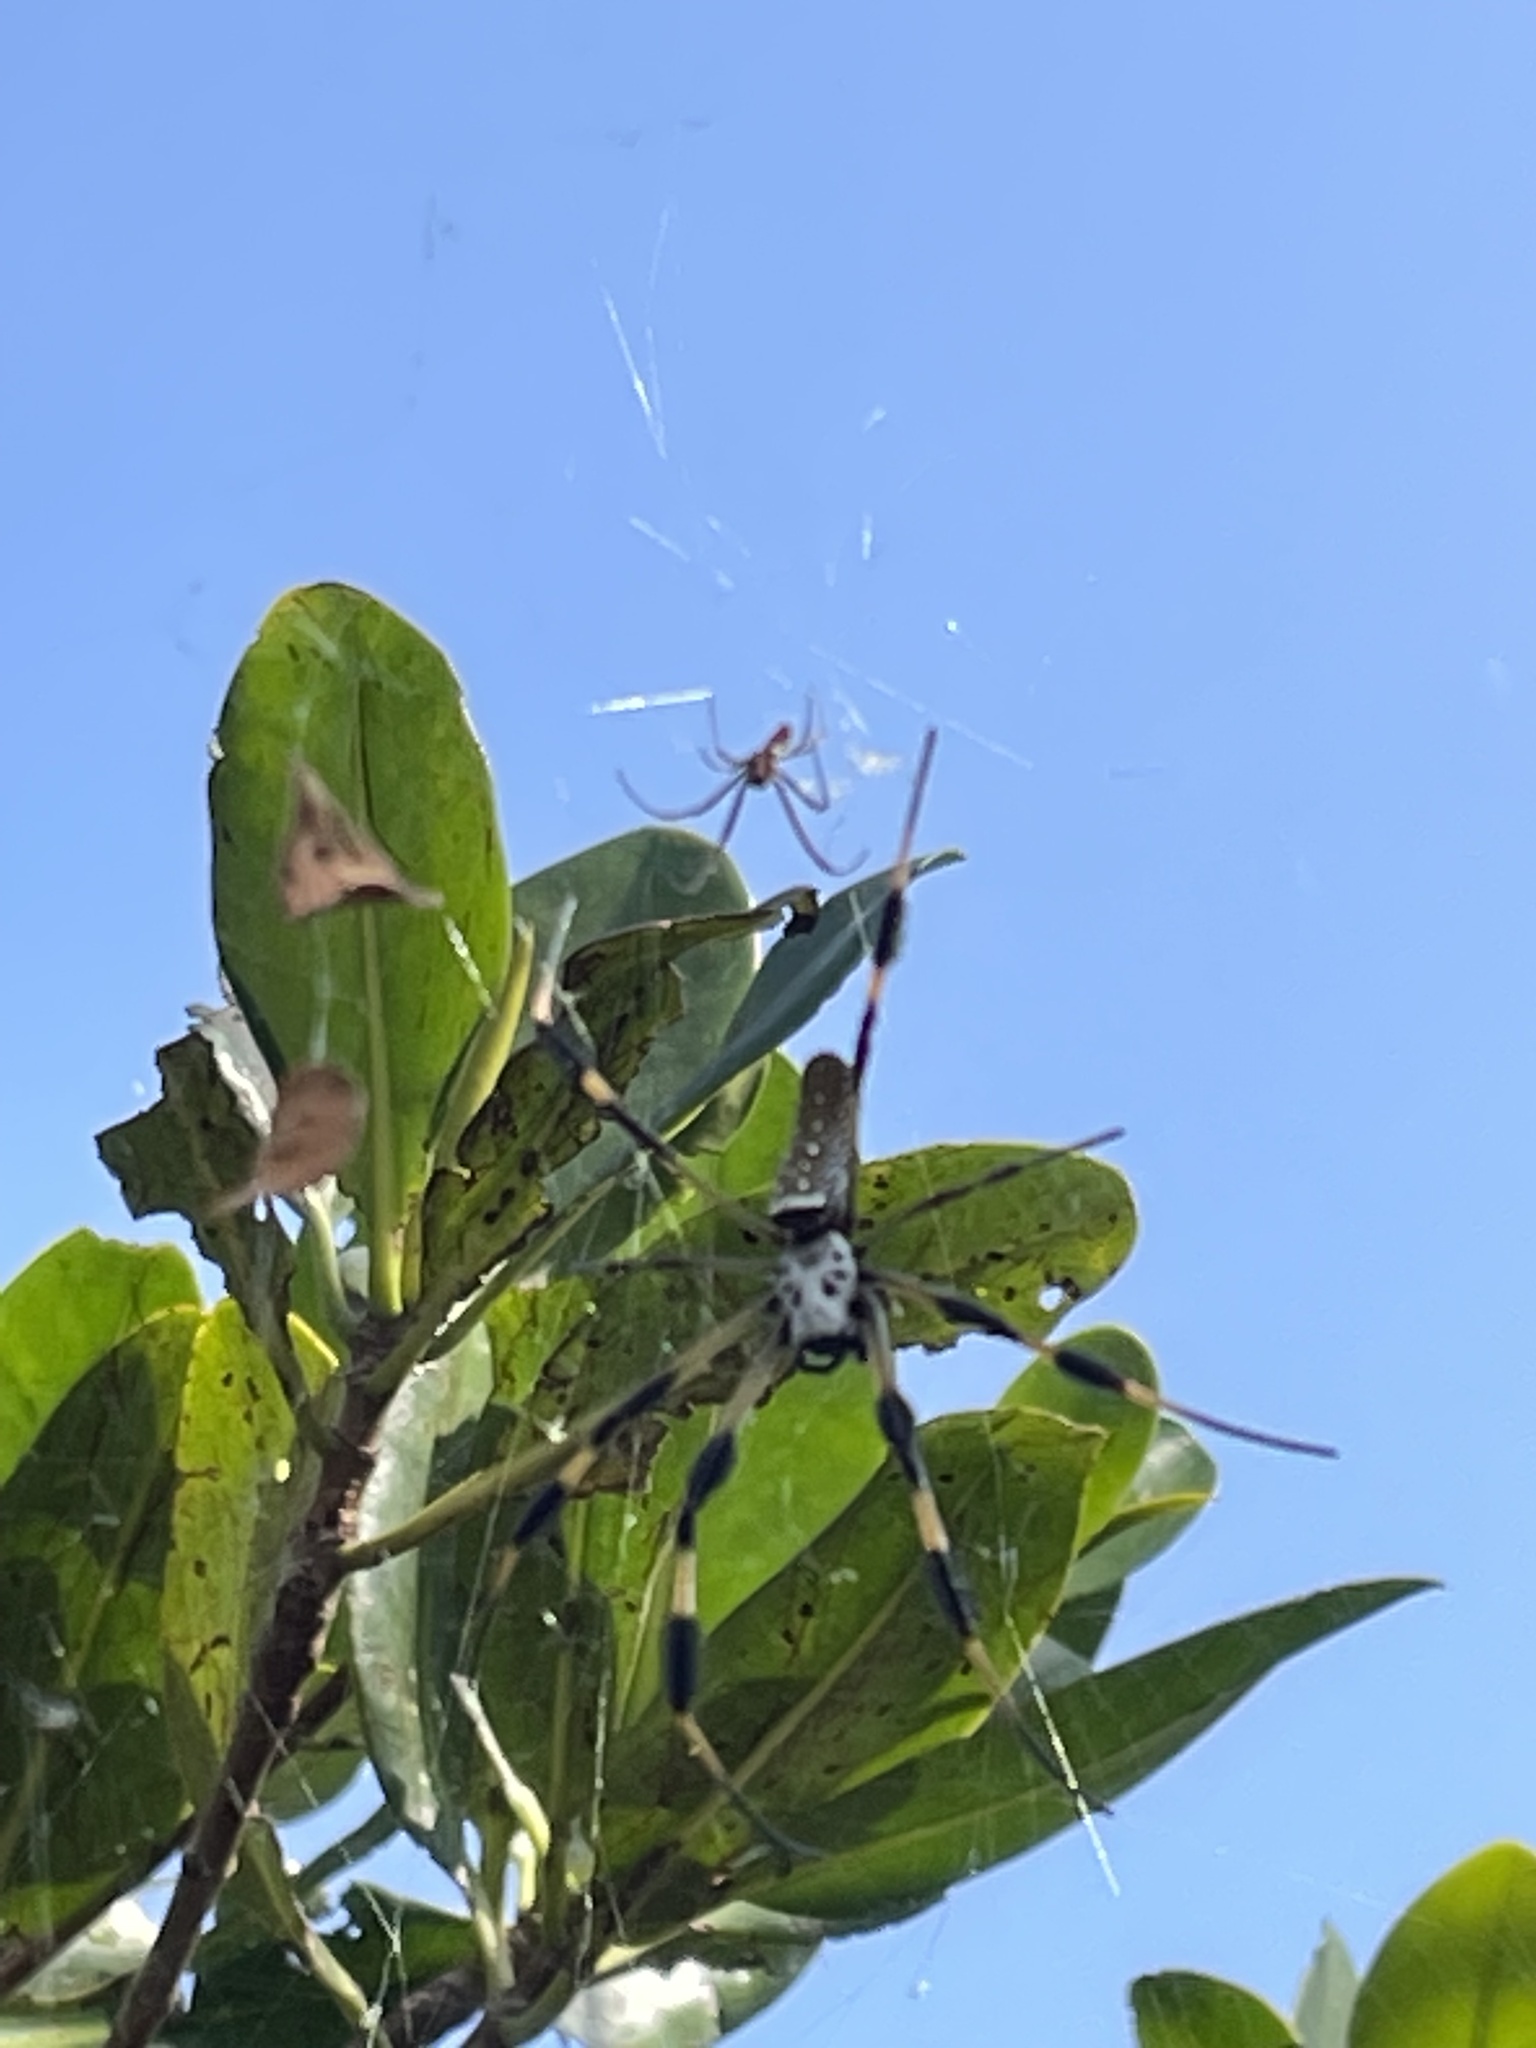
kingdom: Animalia
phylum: Arthropoda
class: Arachnida
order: Araneae
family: Araneidae
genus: Trichonephila
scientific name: Trichonephila clavipes
